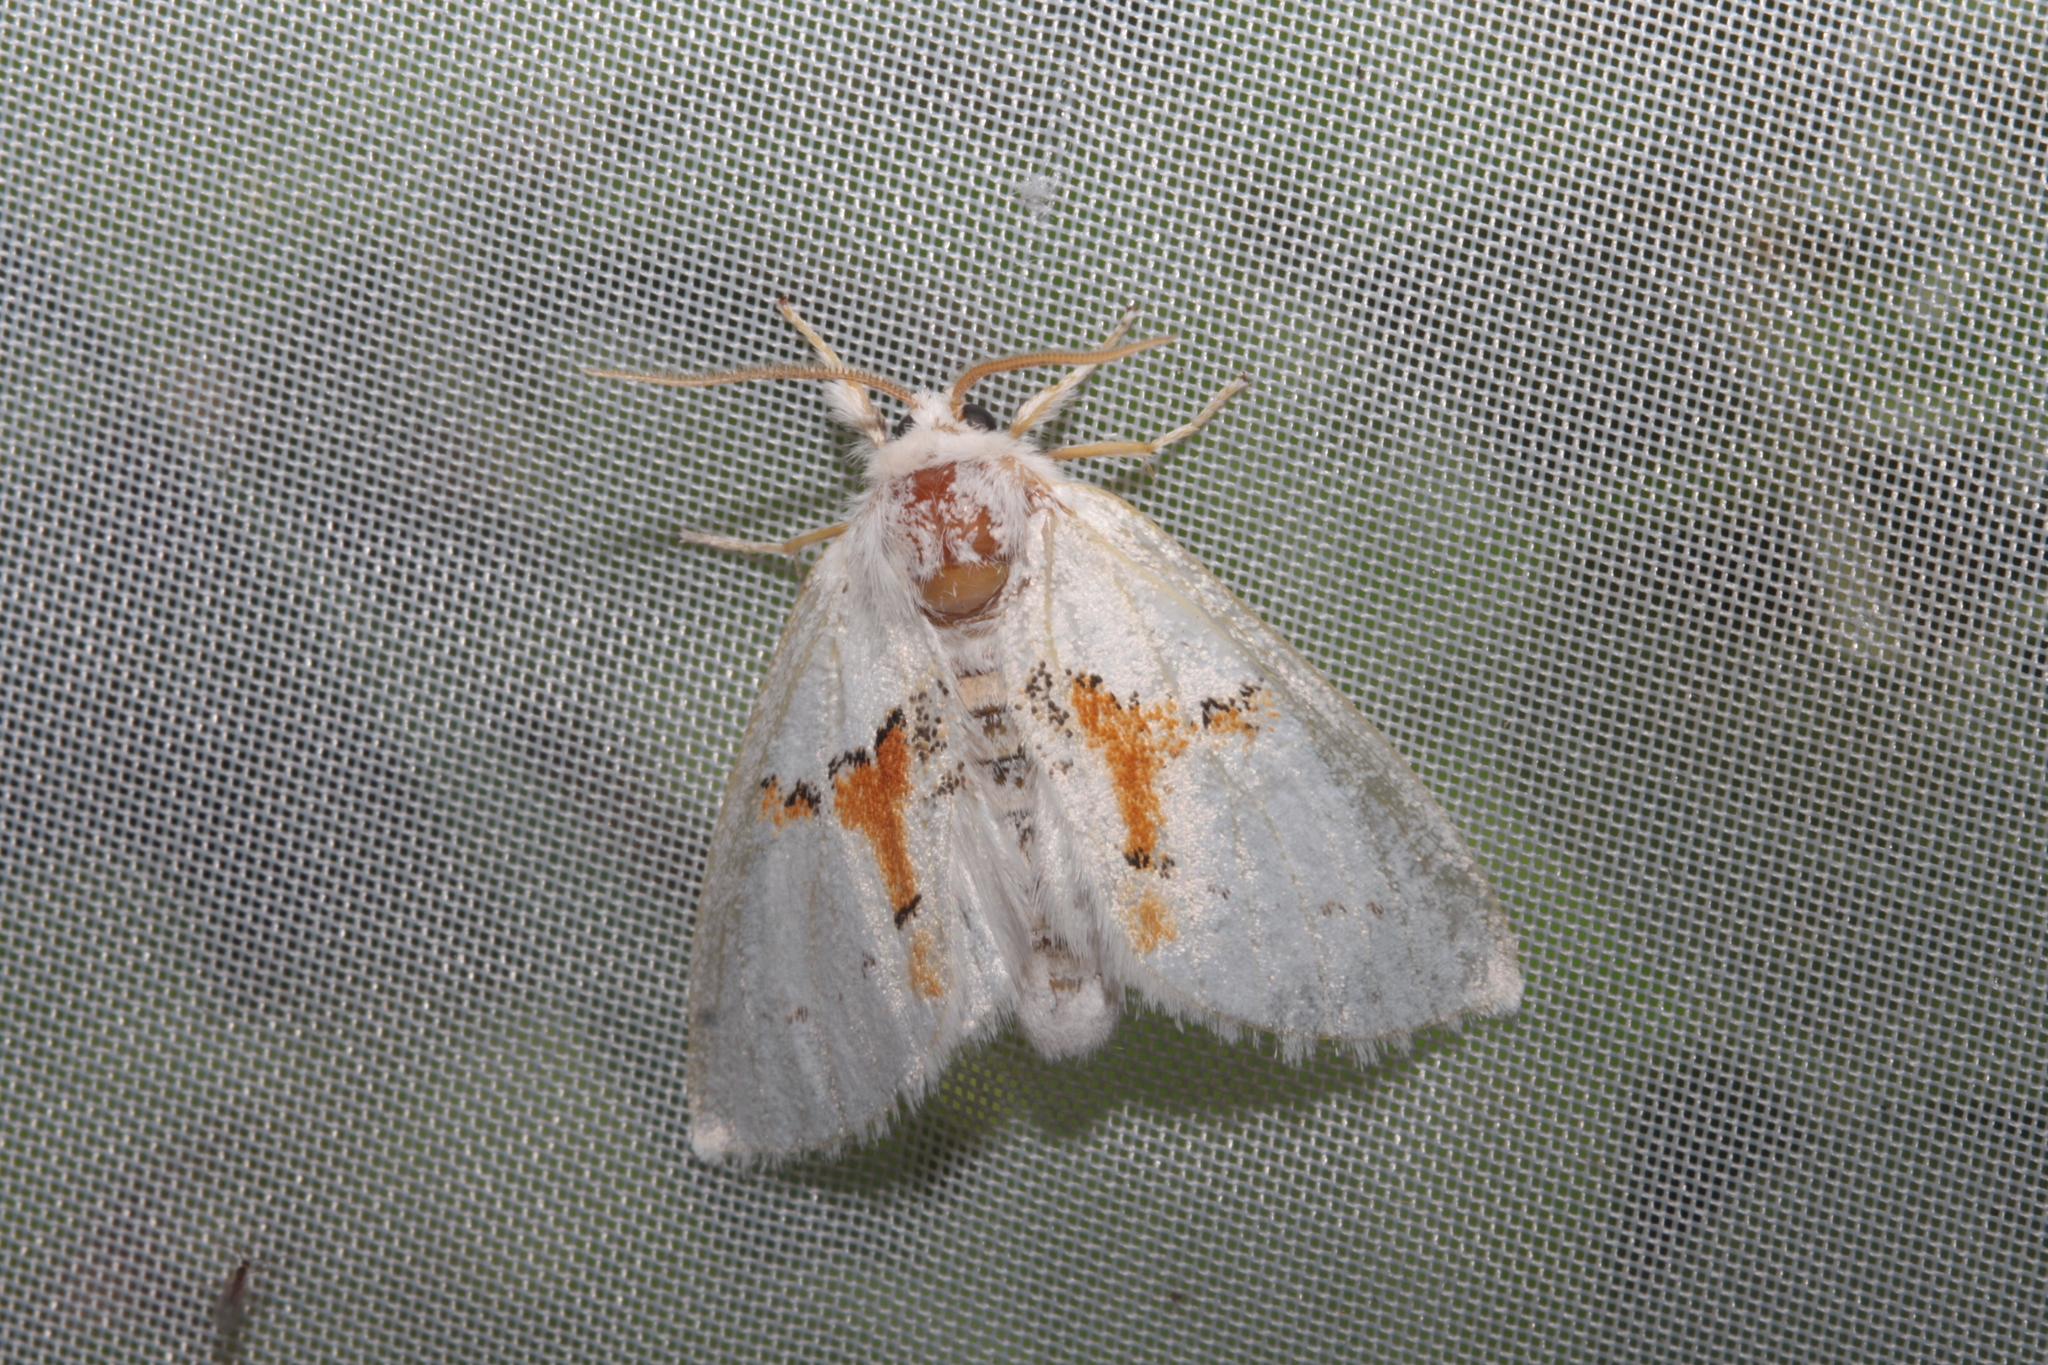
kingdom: Animalia
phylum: Arthropoda
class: Insecta
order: Lepidoptera
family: Notodontidae
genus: Leucodonta
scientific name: Leucodonta bicoloria
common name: White prominent
